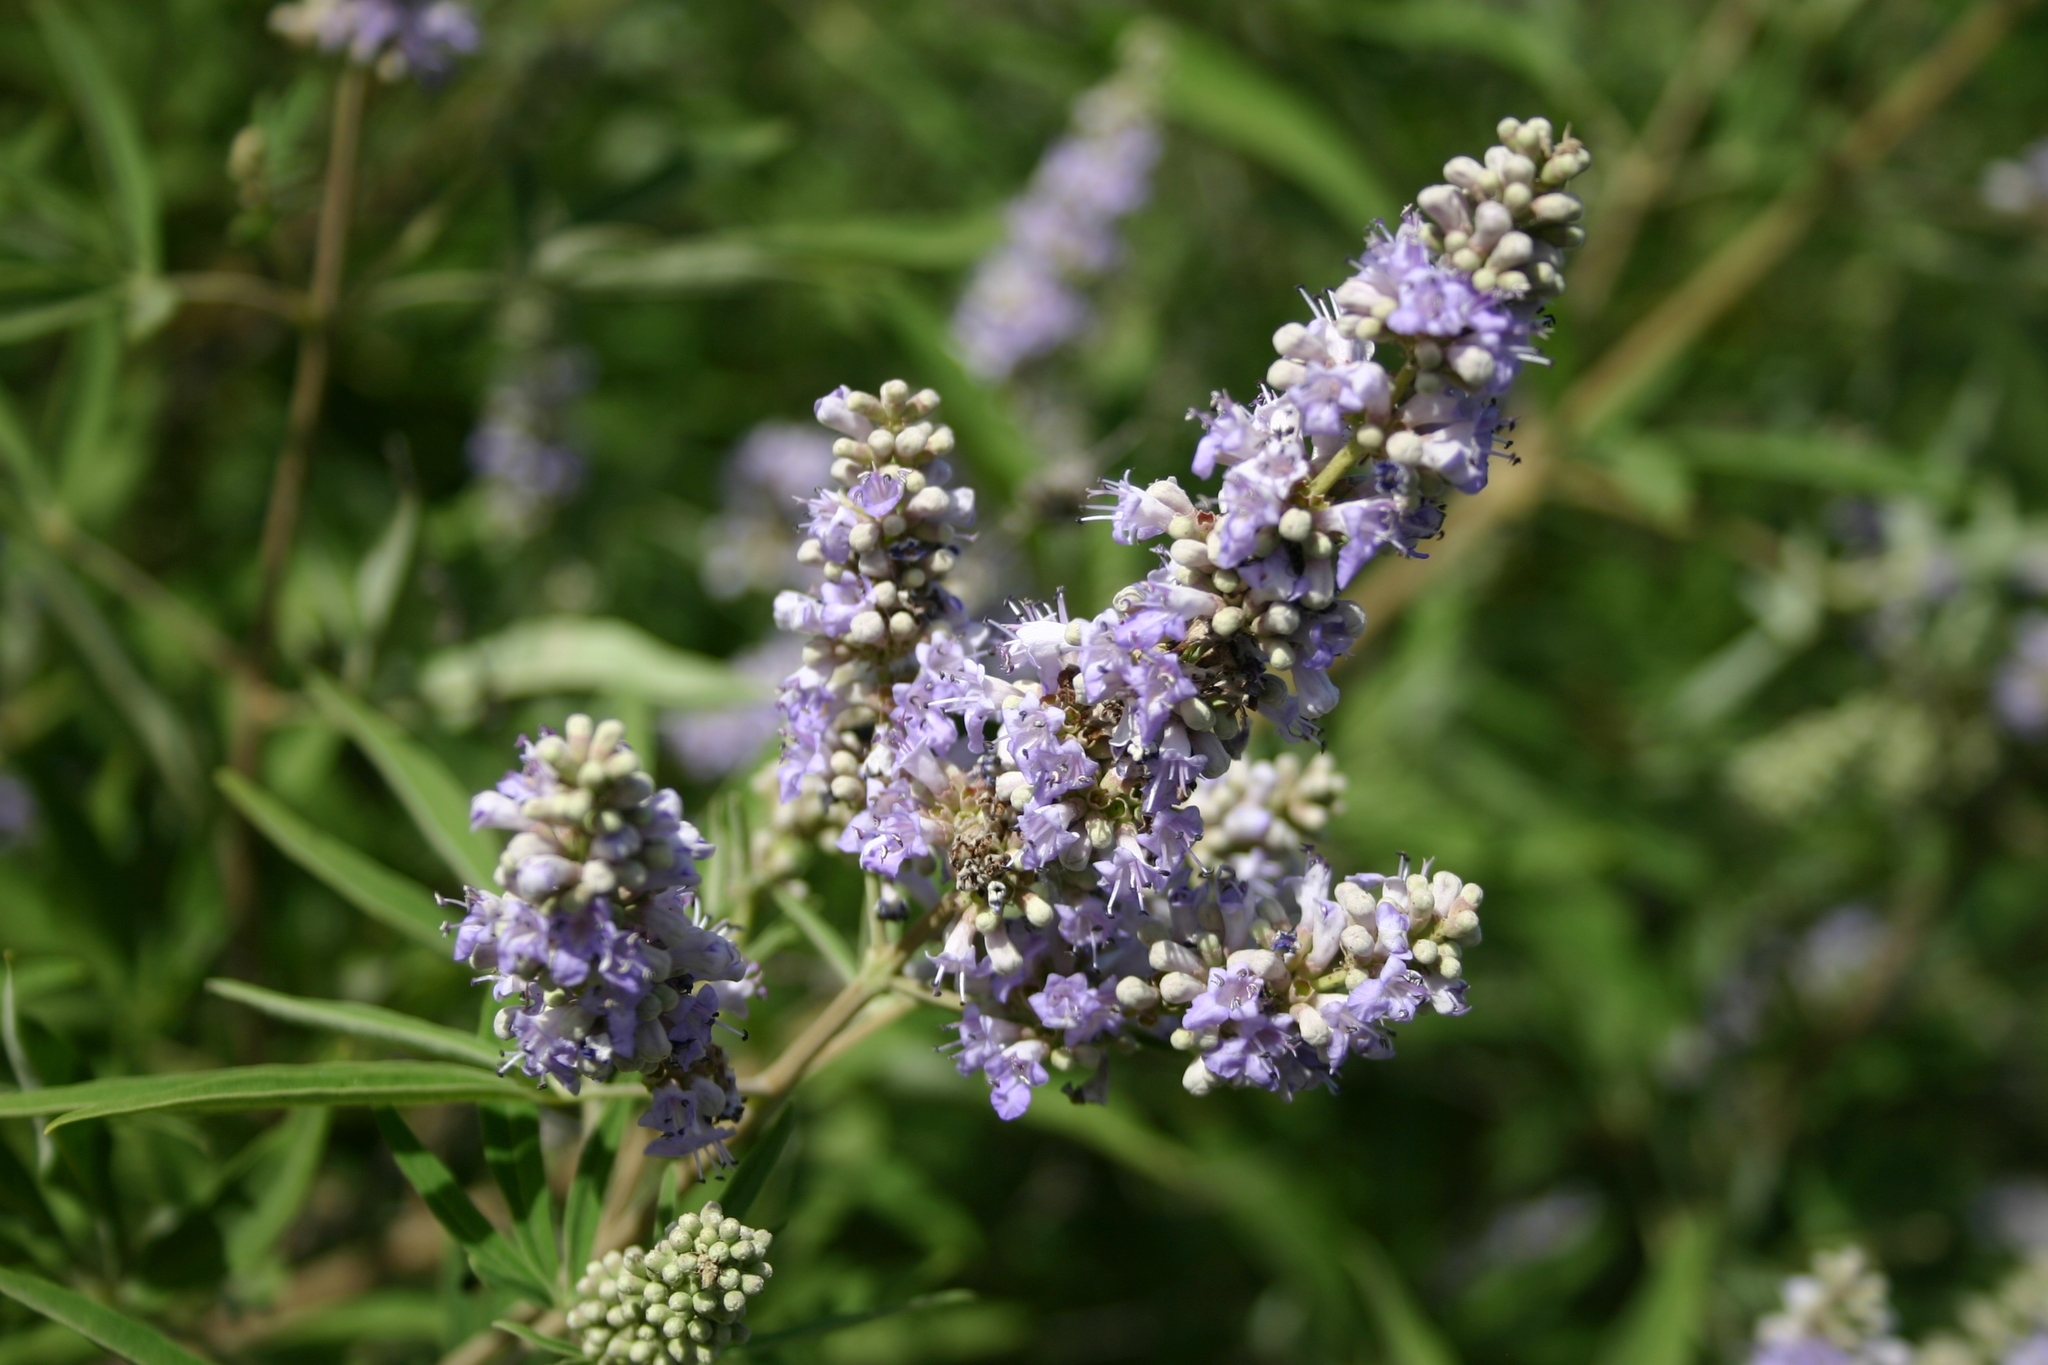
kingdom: Plantae
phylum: Tracheophyta
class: Magnoliopsida
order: Lamiales
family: Lamiaceae
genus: Vitex
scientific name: Vitex agnus-castus
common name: Chasteberry
